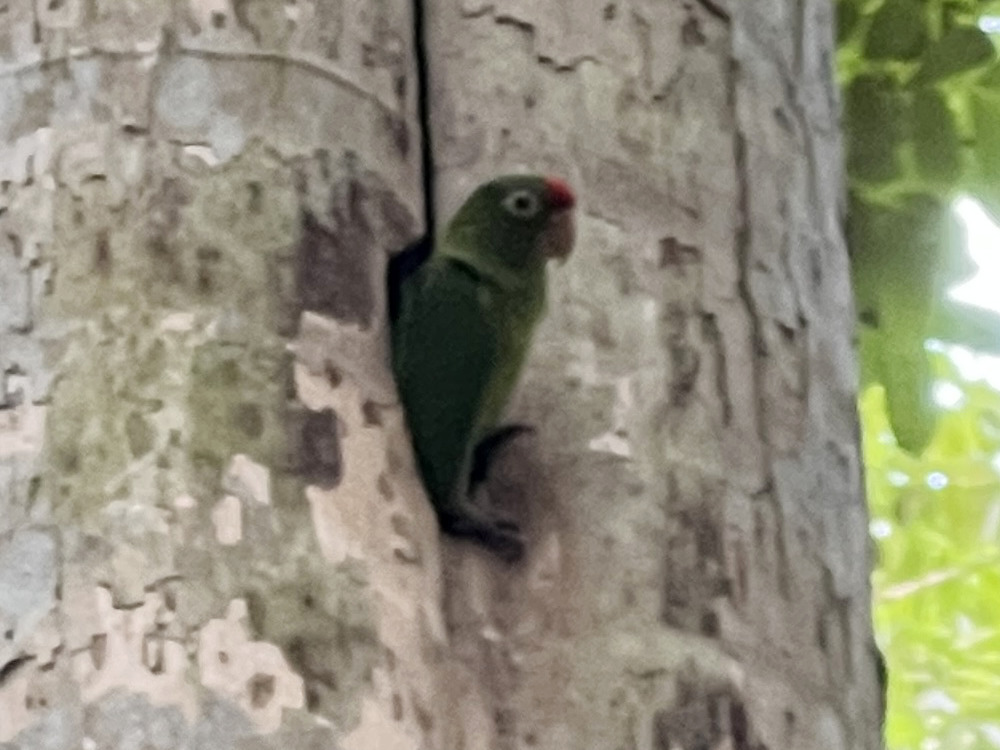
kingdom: Animalia
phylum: Chordata
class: Aves
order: Psittaciformes
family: Psittacidae
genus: Aratinga
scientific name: Aratinga finschi
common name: Crimson-fronted parakeet
